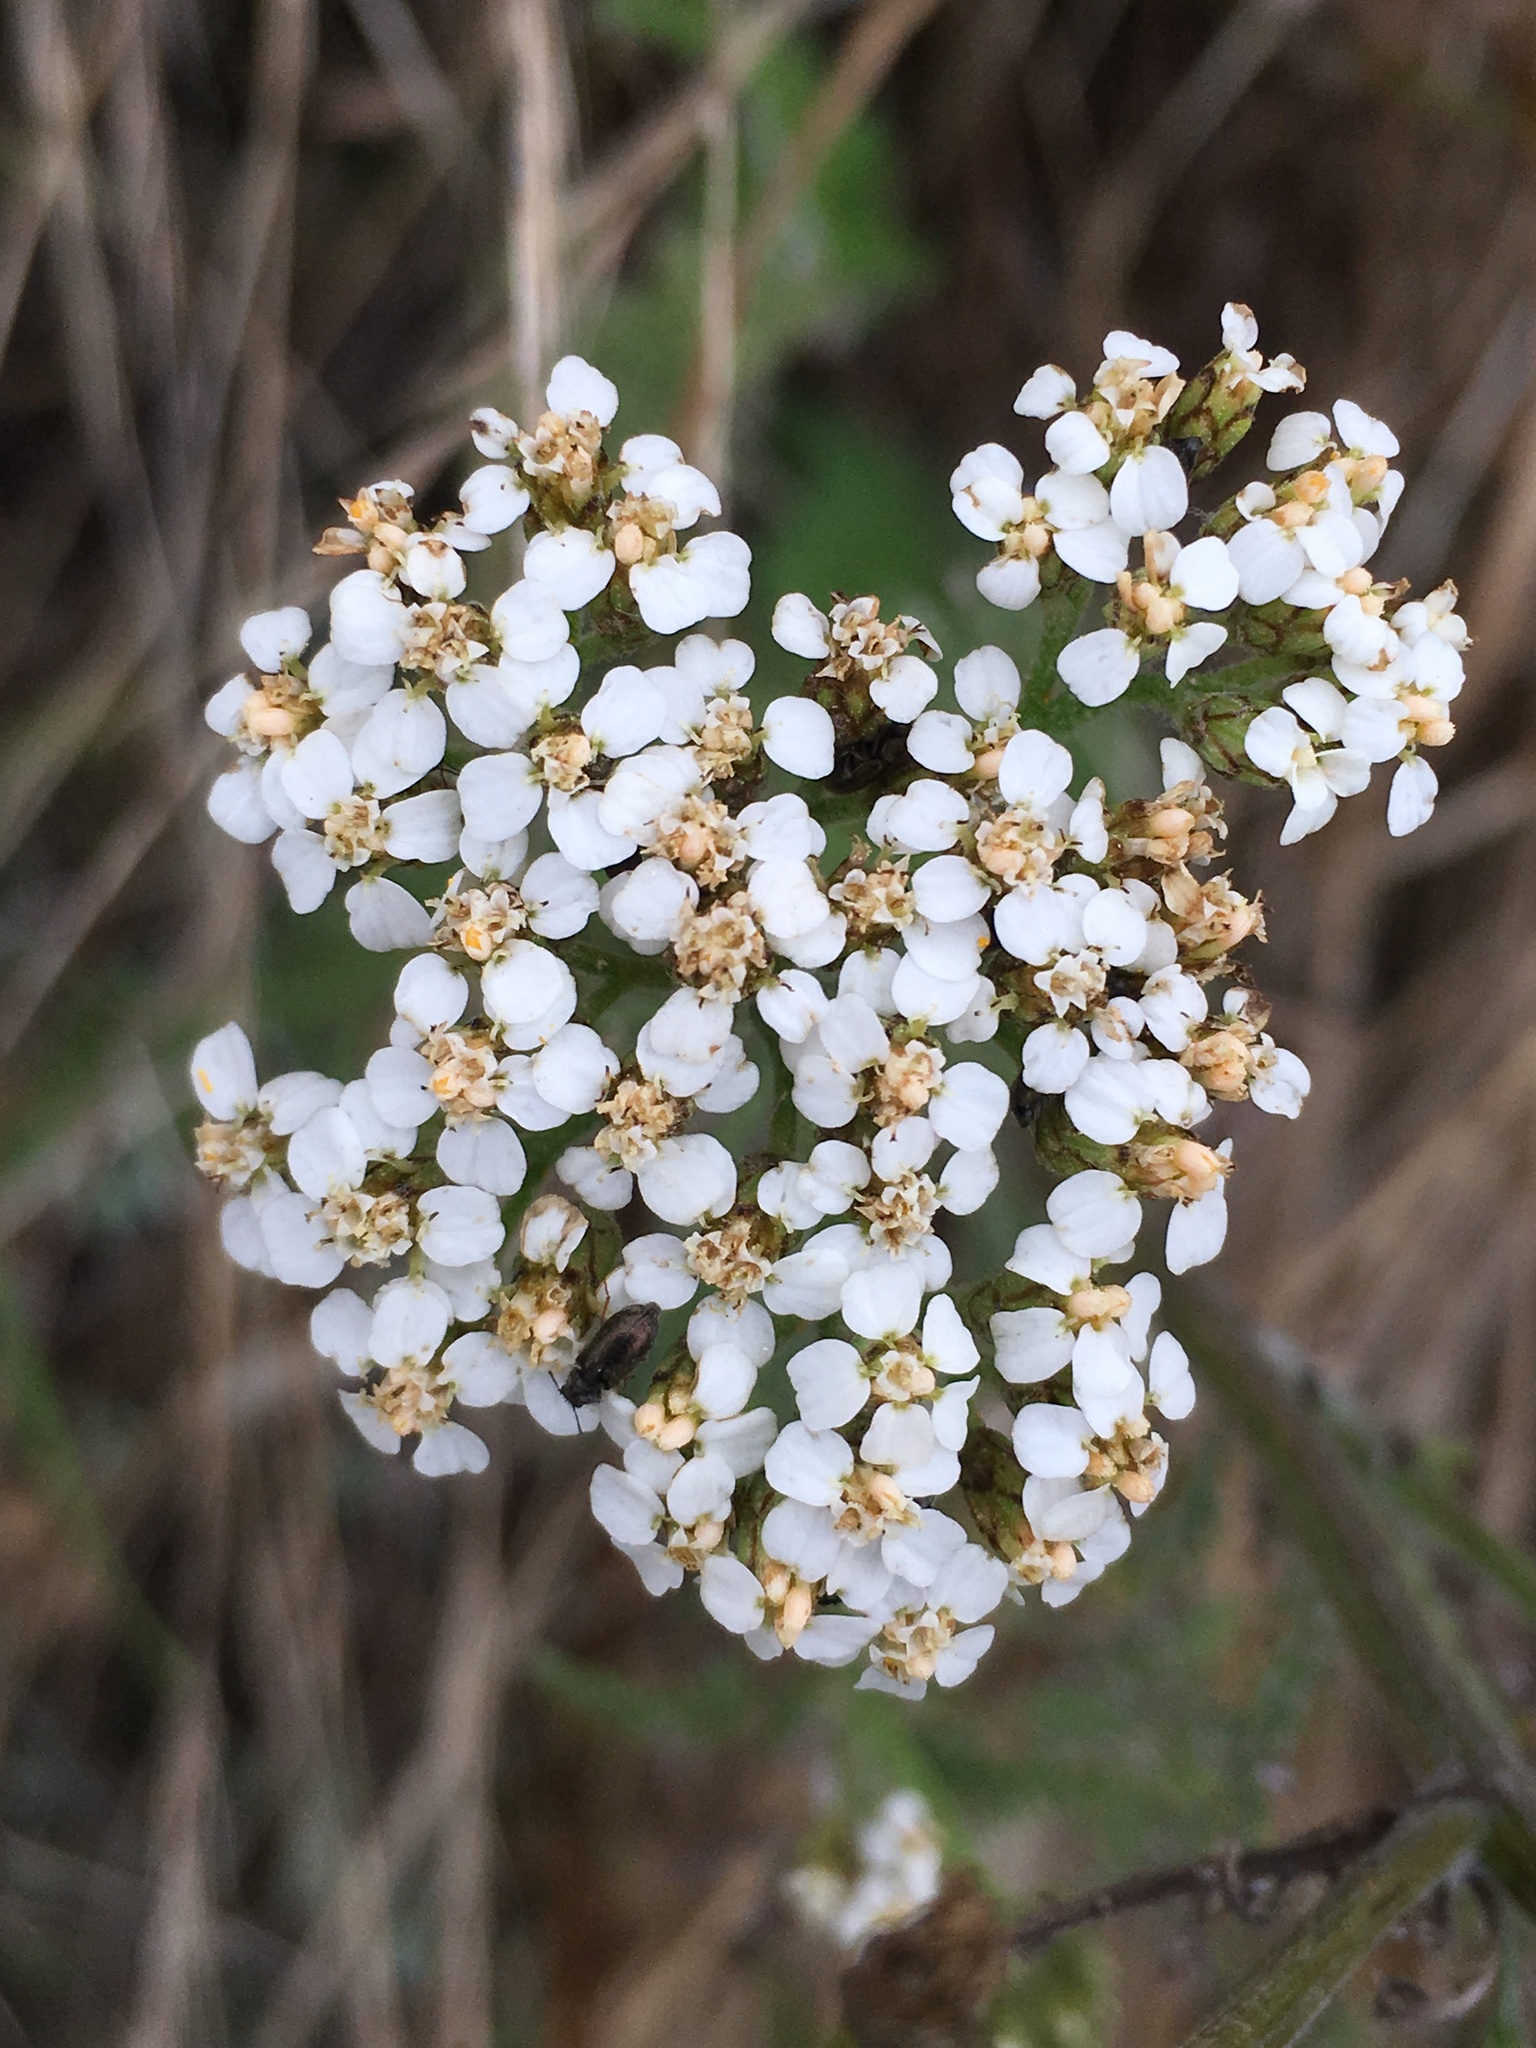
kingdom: Plantae
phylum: Tracheophyta
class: Magnoliopsida
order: Asterales
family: Asteraceae
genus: Achillea
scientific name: Achillea millefolium
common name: Yarrow
